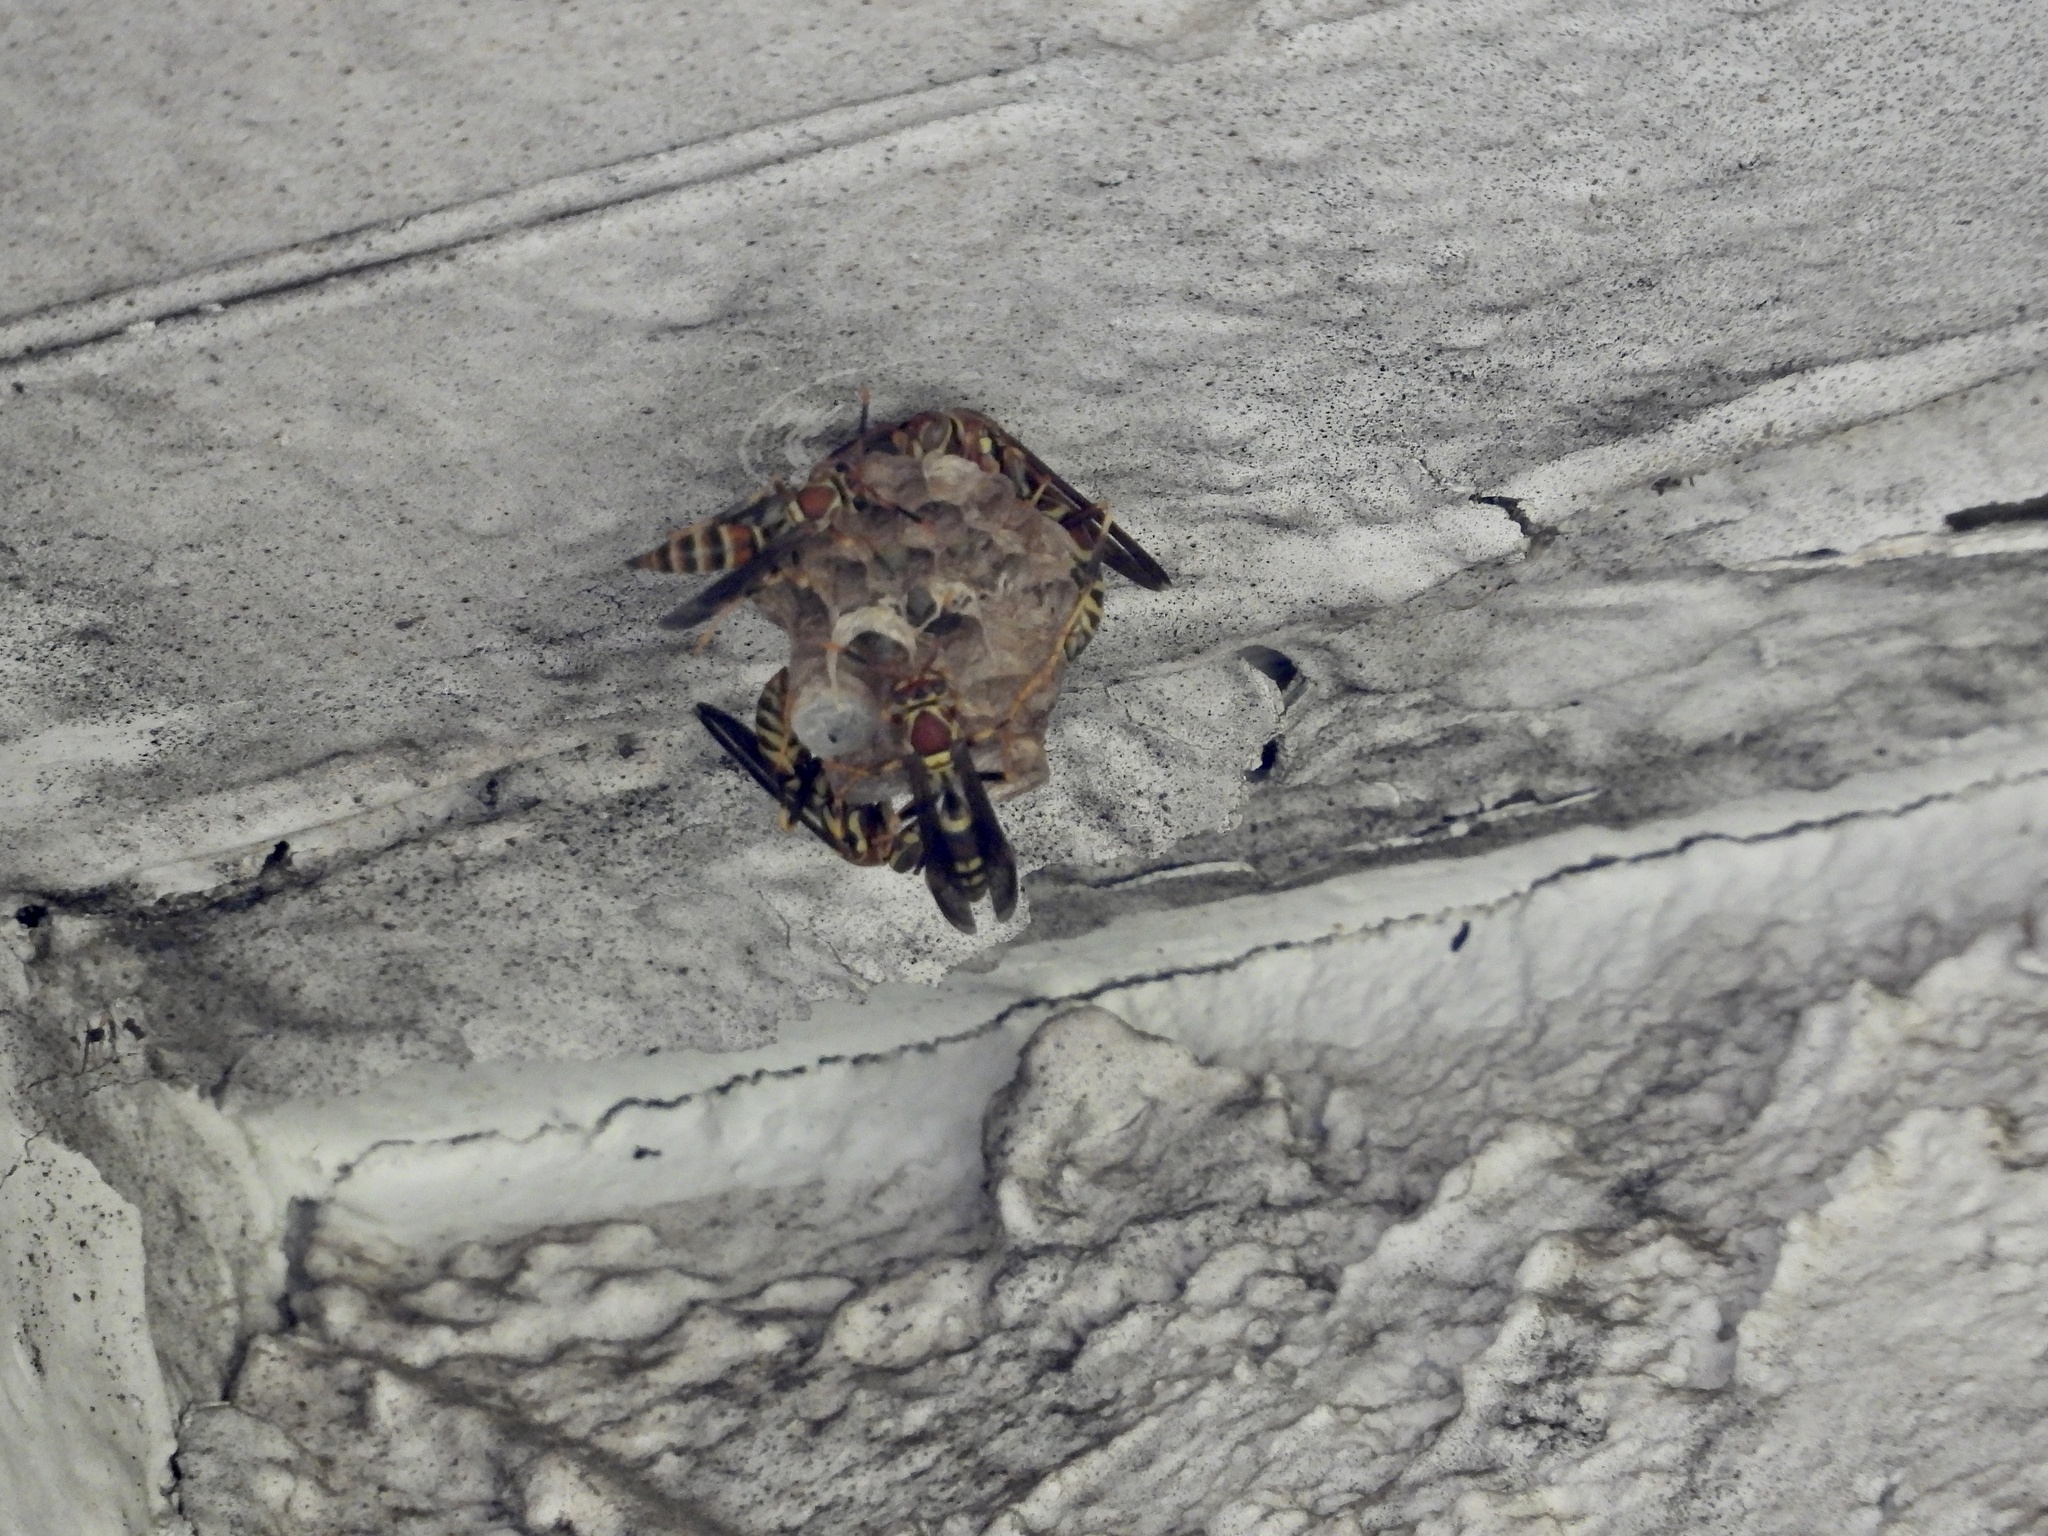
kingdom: Animalia
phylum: Arthropoda
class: Insecta
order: Hymenoptera
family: Eumenidae
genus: Polistes
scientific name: Polistes exclamans
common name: Paper wasp
